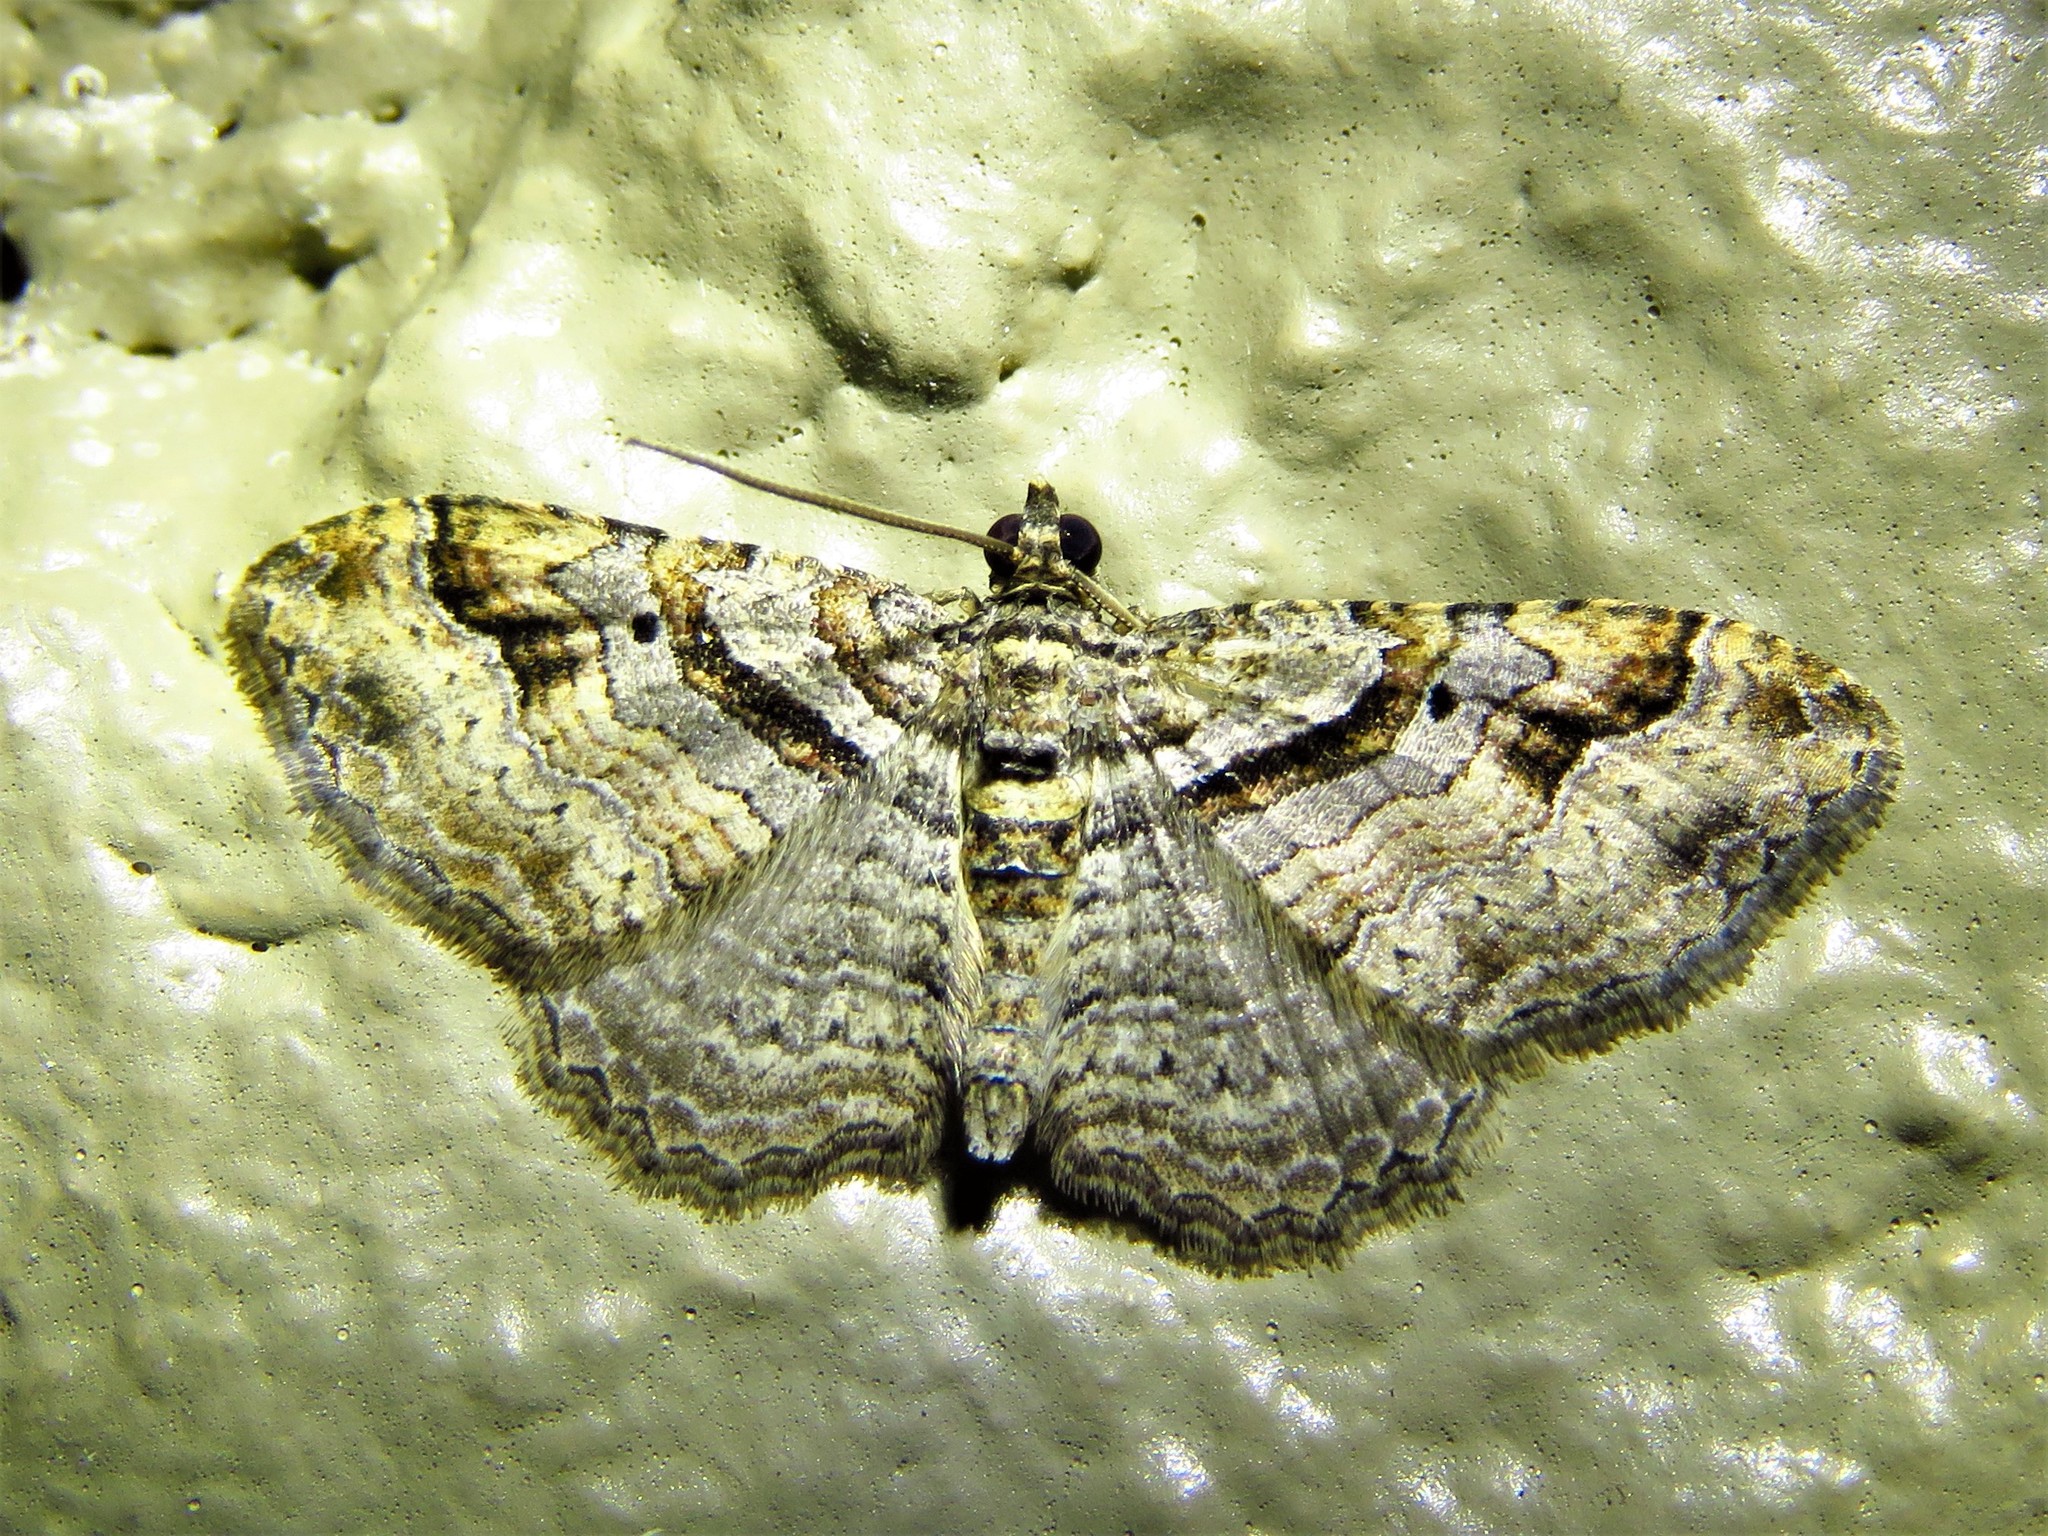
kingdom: Animalia
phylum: Arthropoda
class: Insecta
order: Lepidoptera
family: Geometridae
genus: Costaconvexa
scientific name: Costaconvexa centrostrigaria
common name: Bent-line carpet
